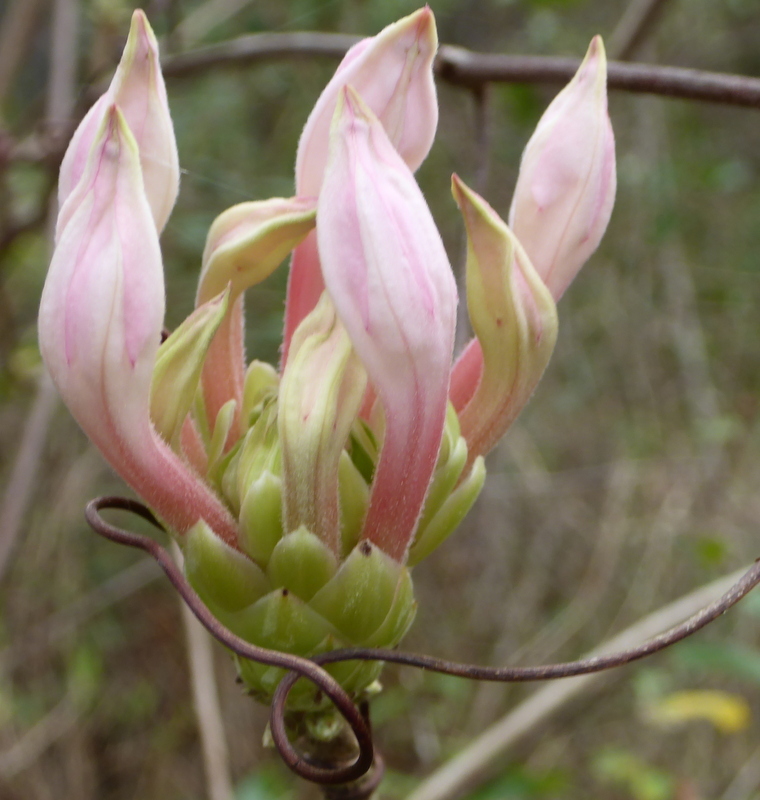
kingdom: Plantae
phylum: Tracheophyta
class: Magnoliopsida
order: Ericales
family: Ericaceae
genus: Rhododendron
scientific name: Rhododendron canescens
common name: Mountain azalea
